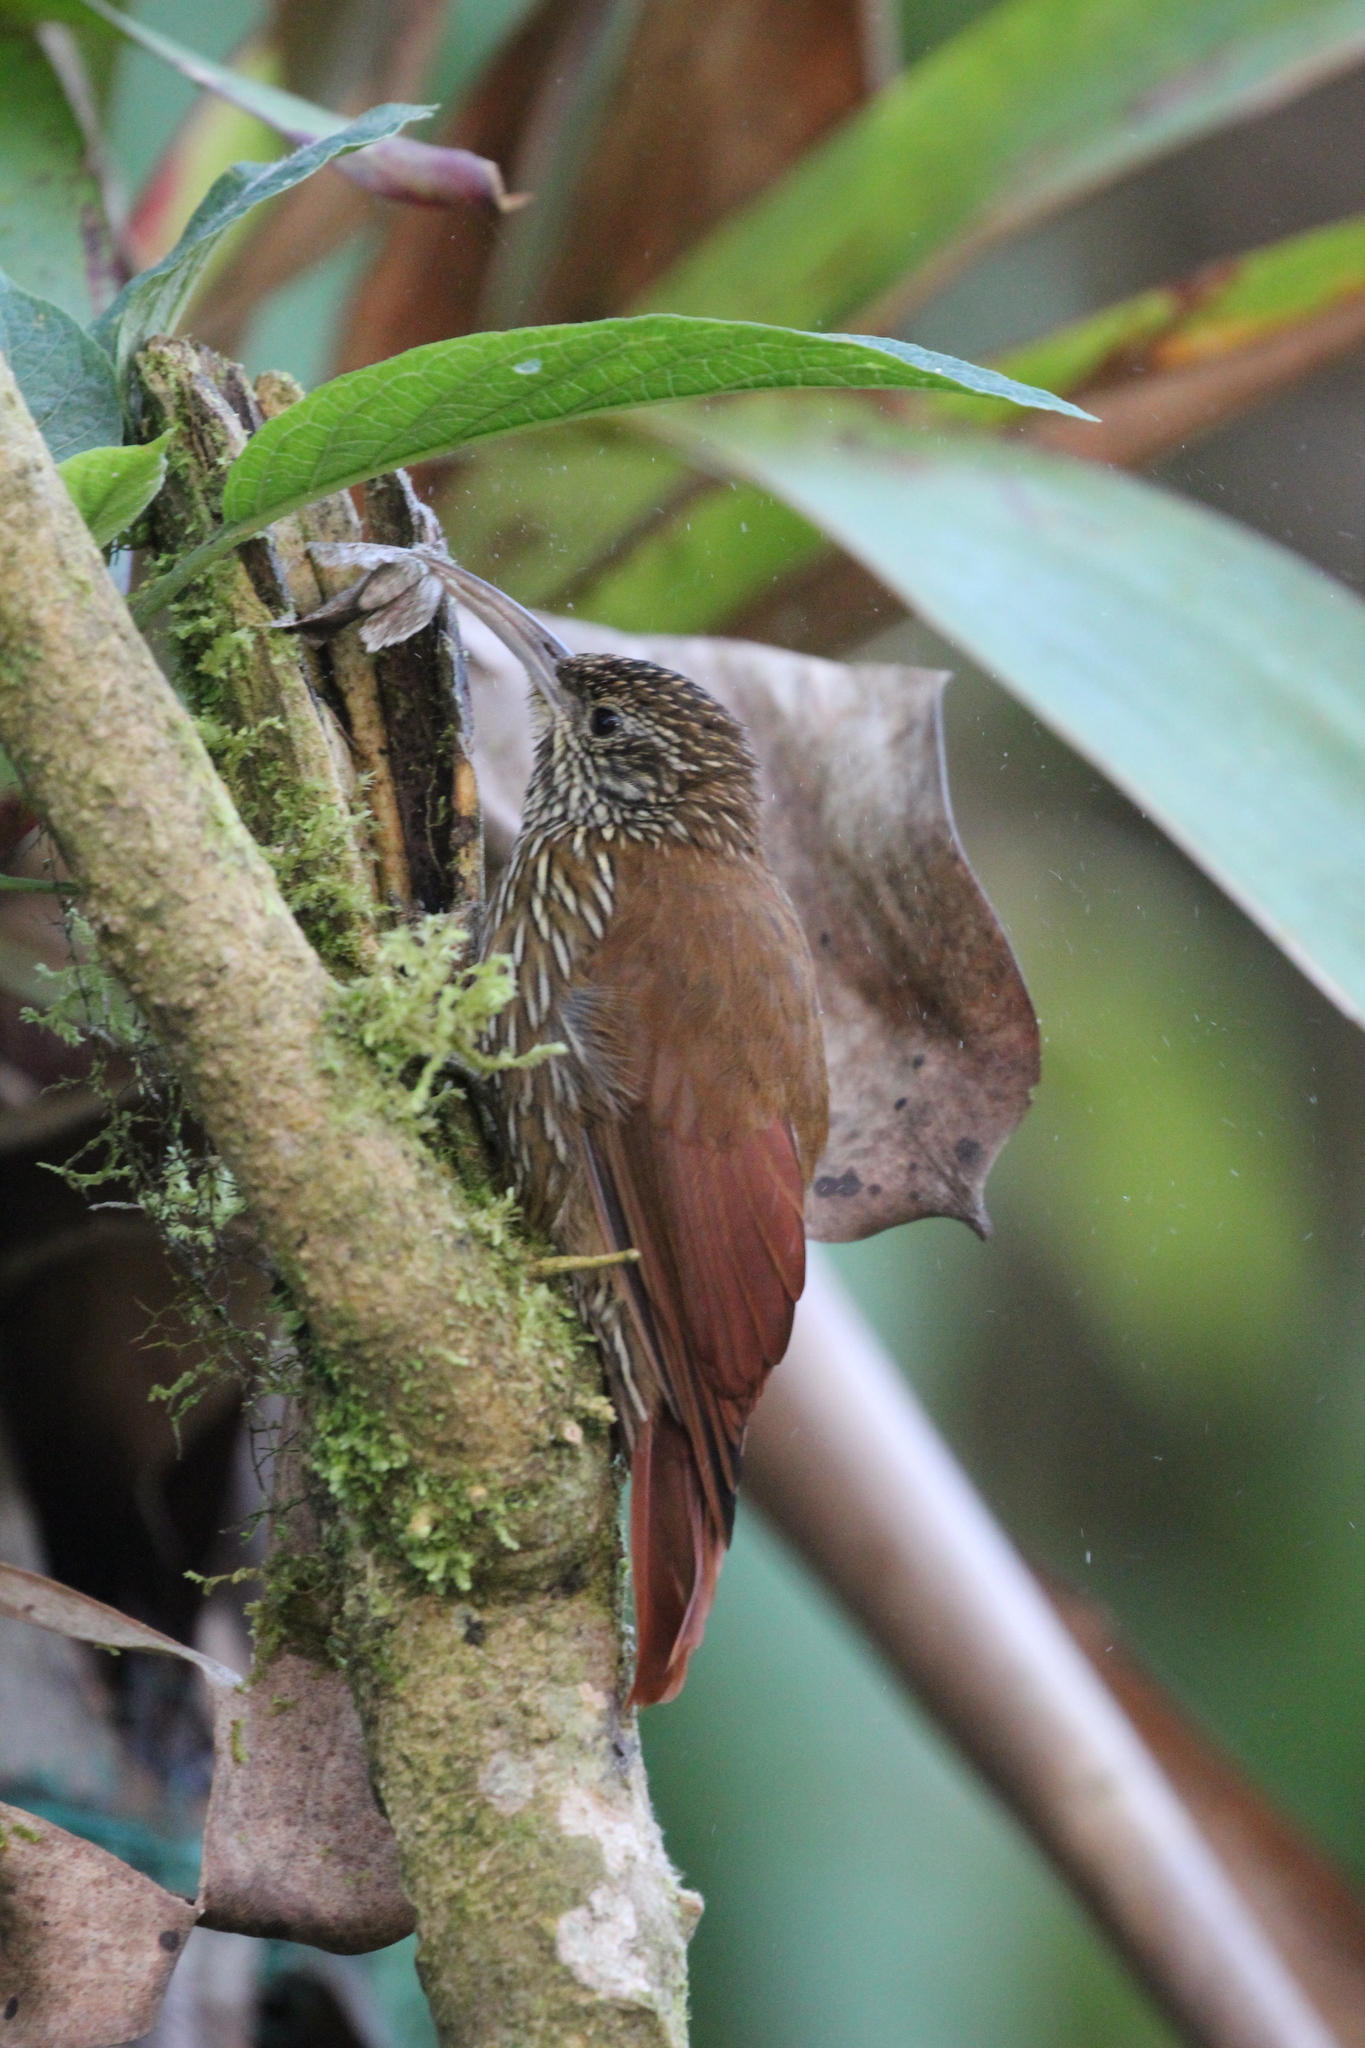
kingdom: Animalia
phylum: Chordata
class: Aves
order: Passeriformes
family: Furnariidae
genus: Lepidocolaptes
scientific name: Lepidocolaptes lacrymiger
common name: Montane woodcreeper
